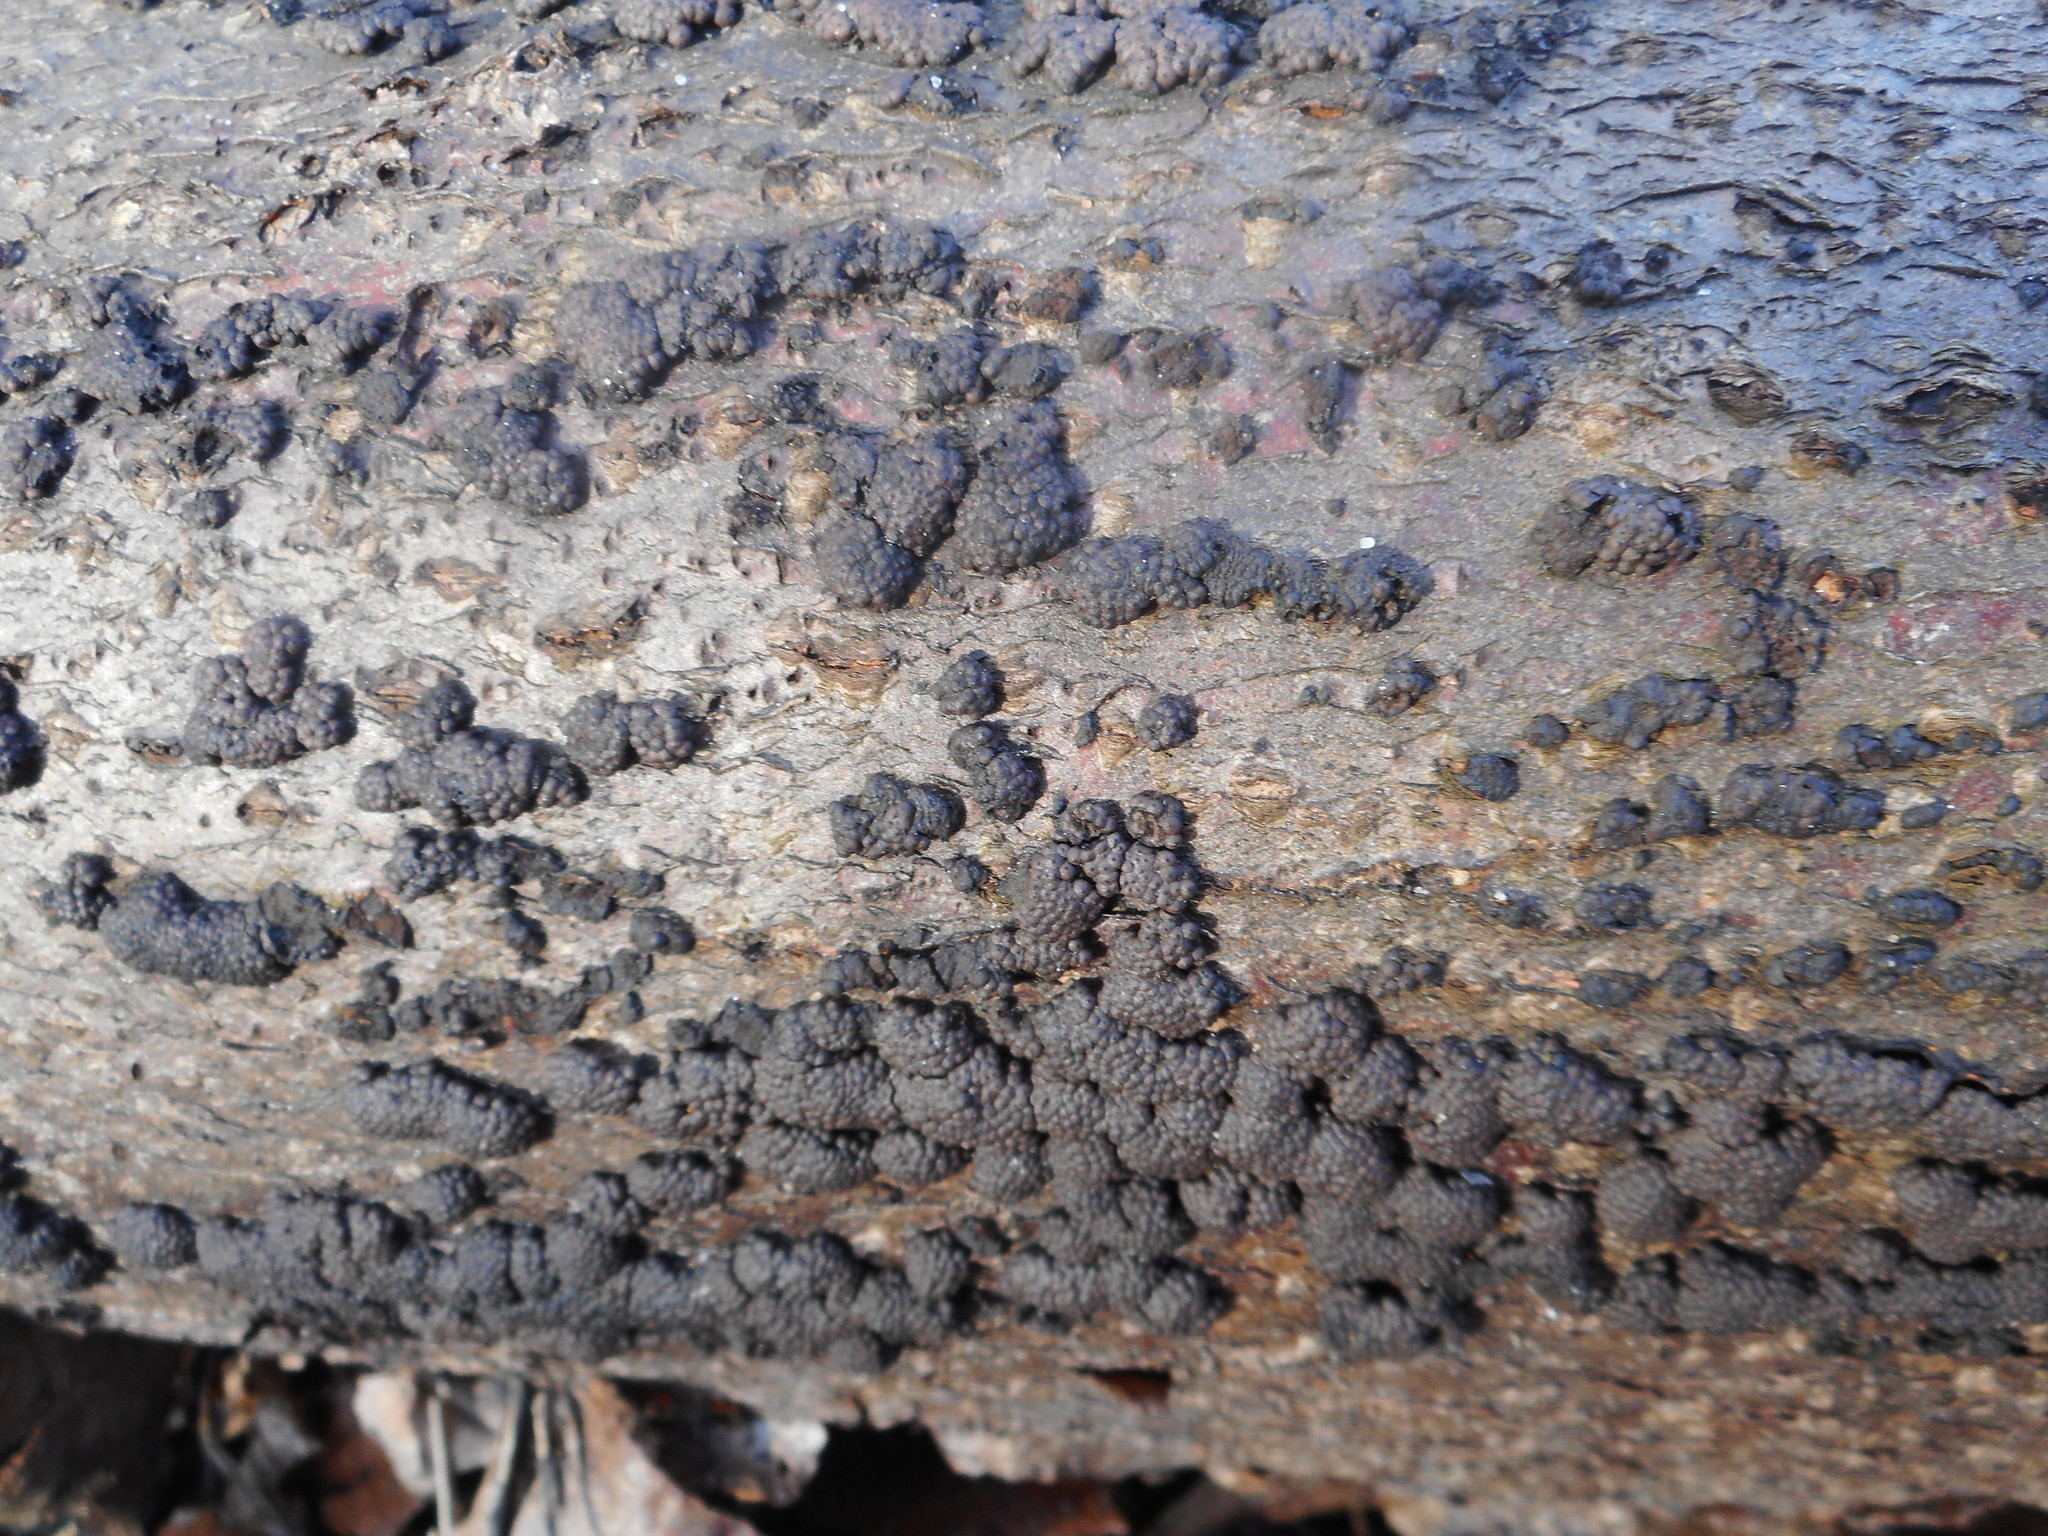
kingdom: Fungi
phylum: Ascomycota
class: Sordariomycetes
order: Xylariales
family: Hypoxylaceae
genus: Jackrogersella
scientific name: Jackrogersella multiformis
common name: Birch woodwart
